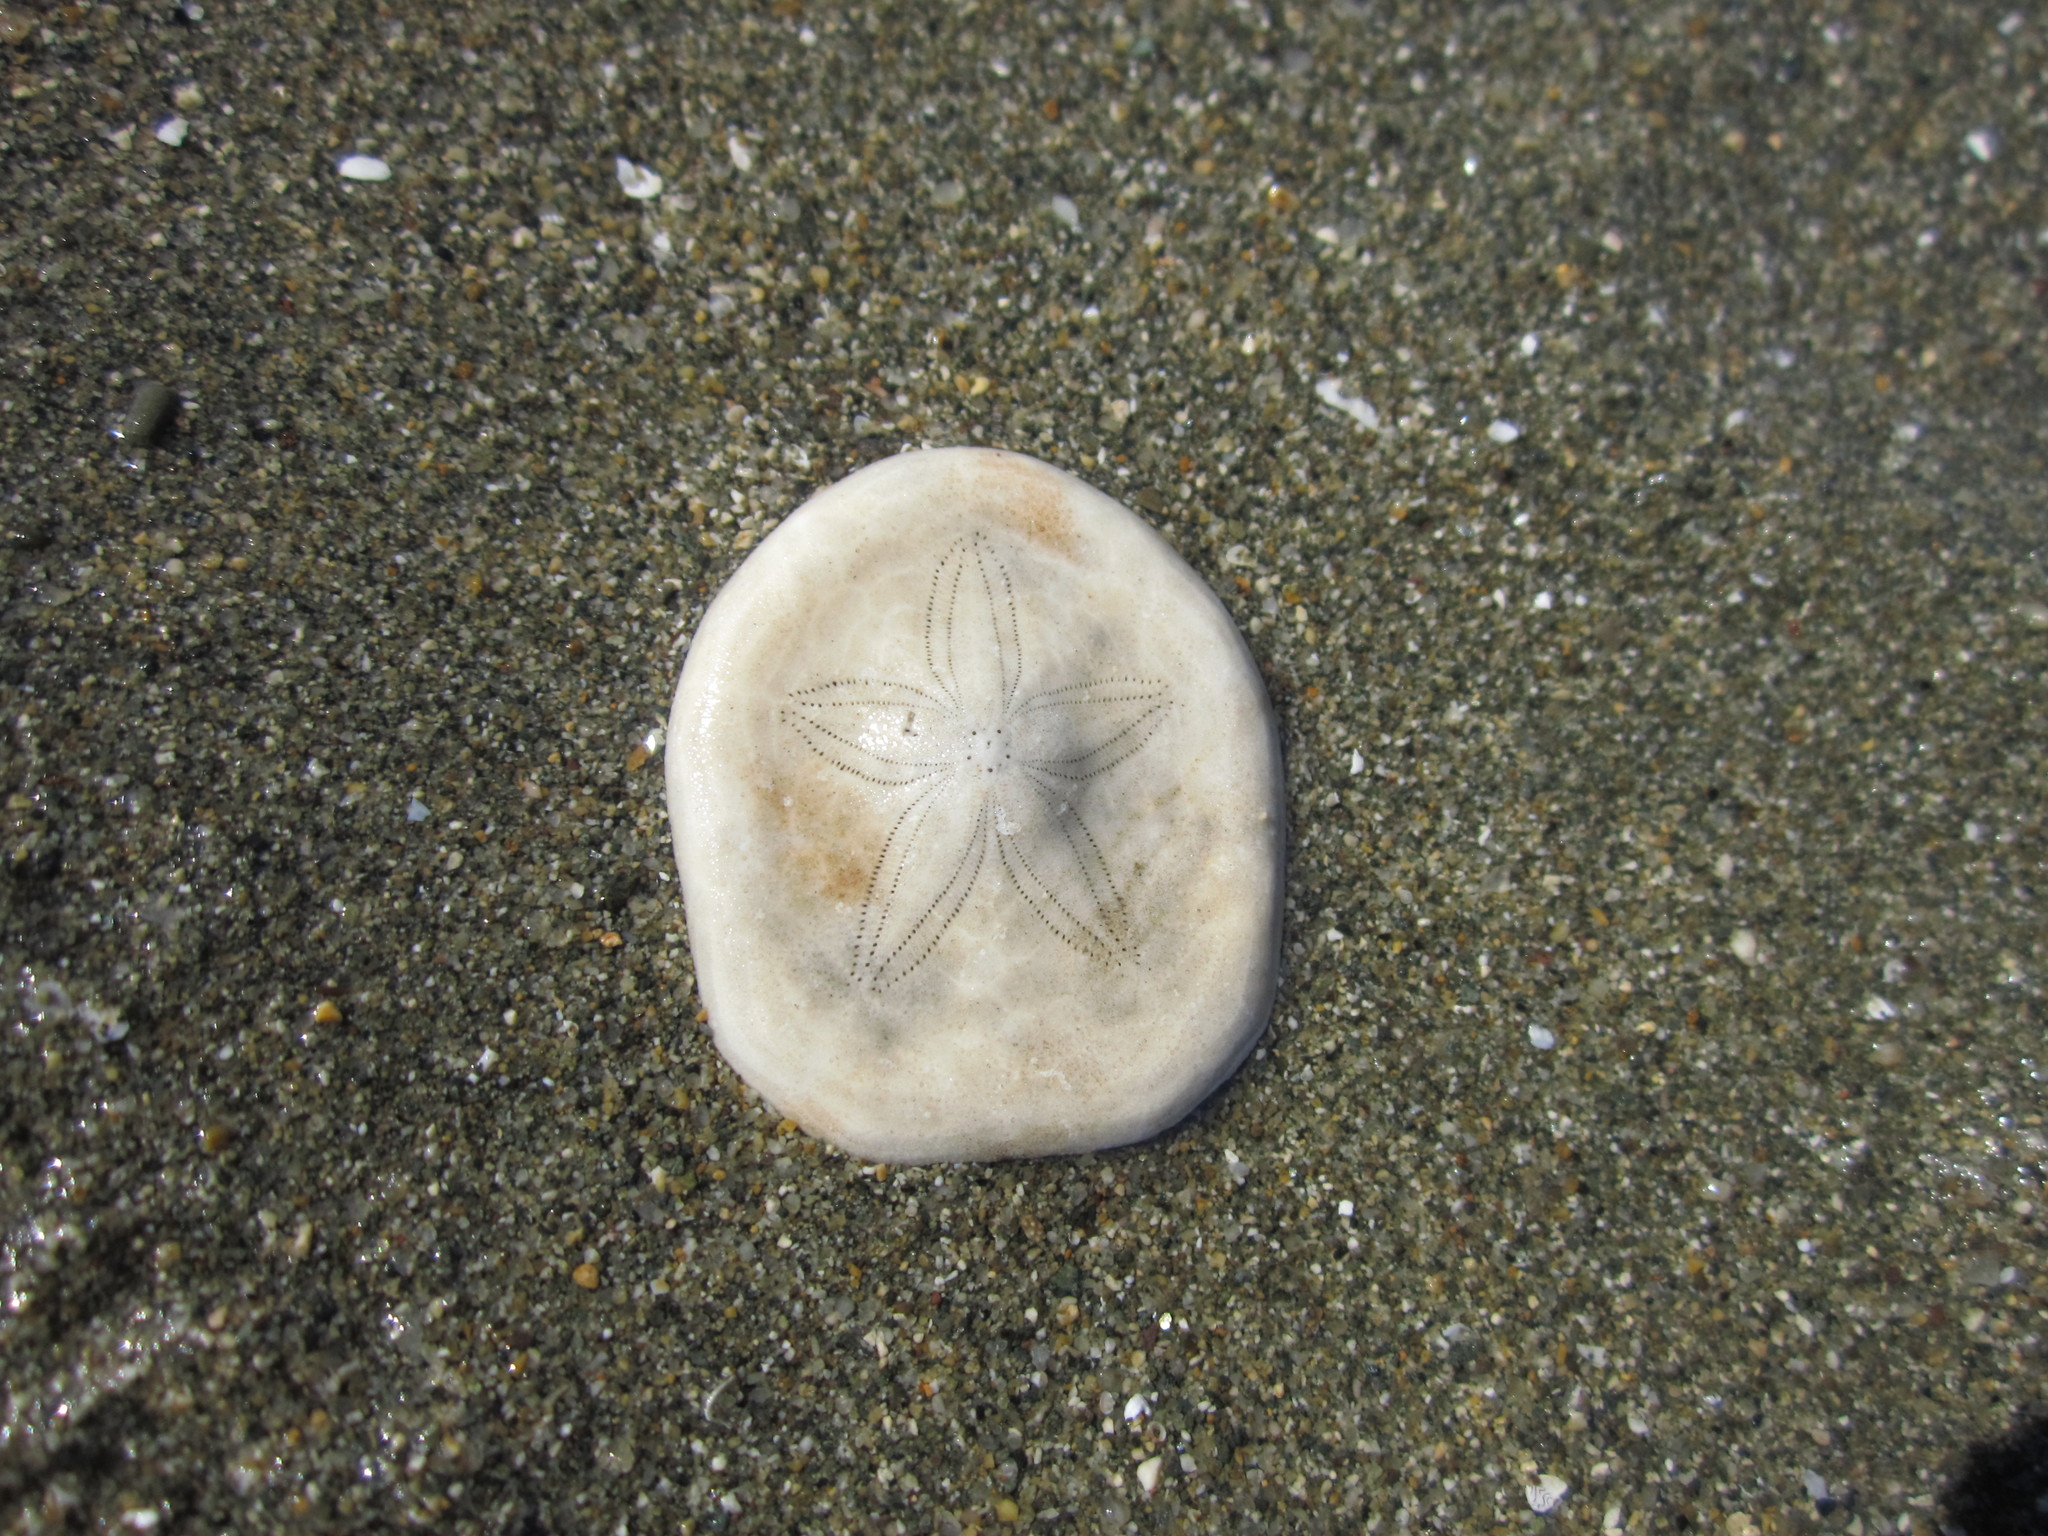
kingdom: Animalia
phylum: Echinodermata
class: Echinoidea
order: Echinolampadacea
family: Laganidae
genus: Jacksonaster
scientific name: Jacksonaster depressus
